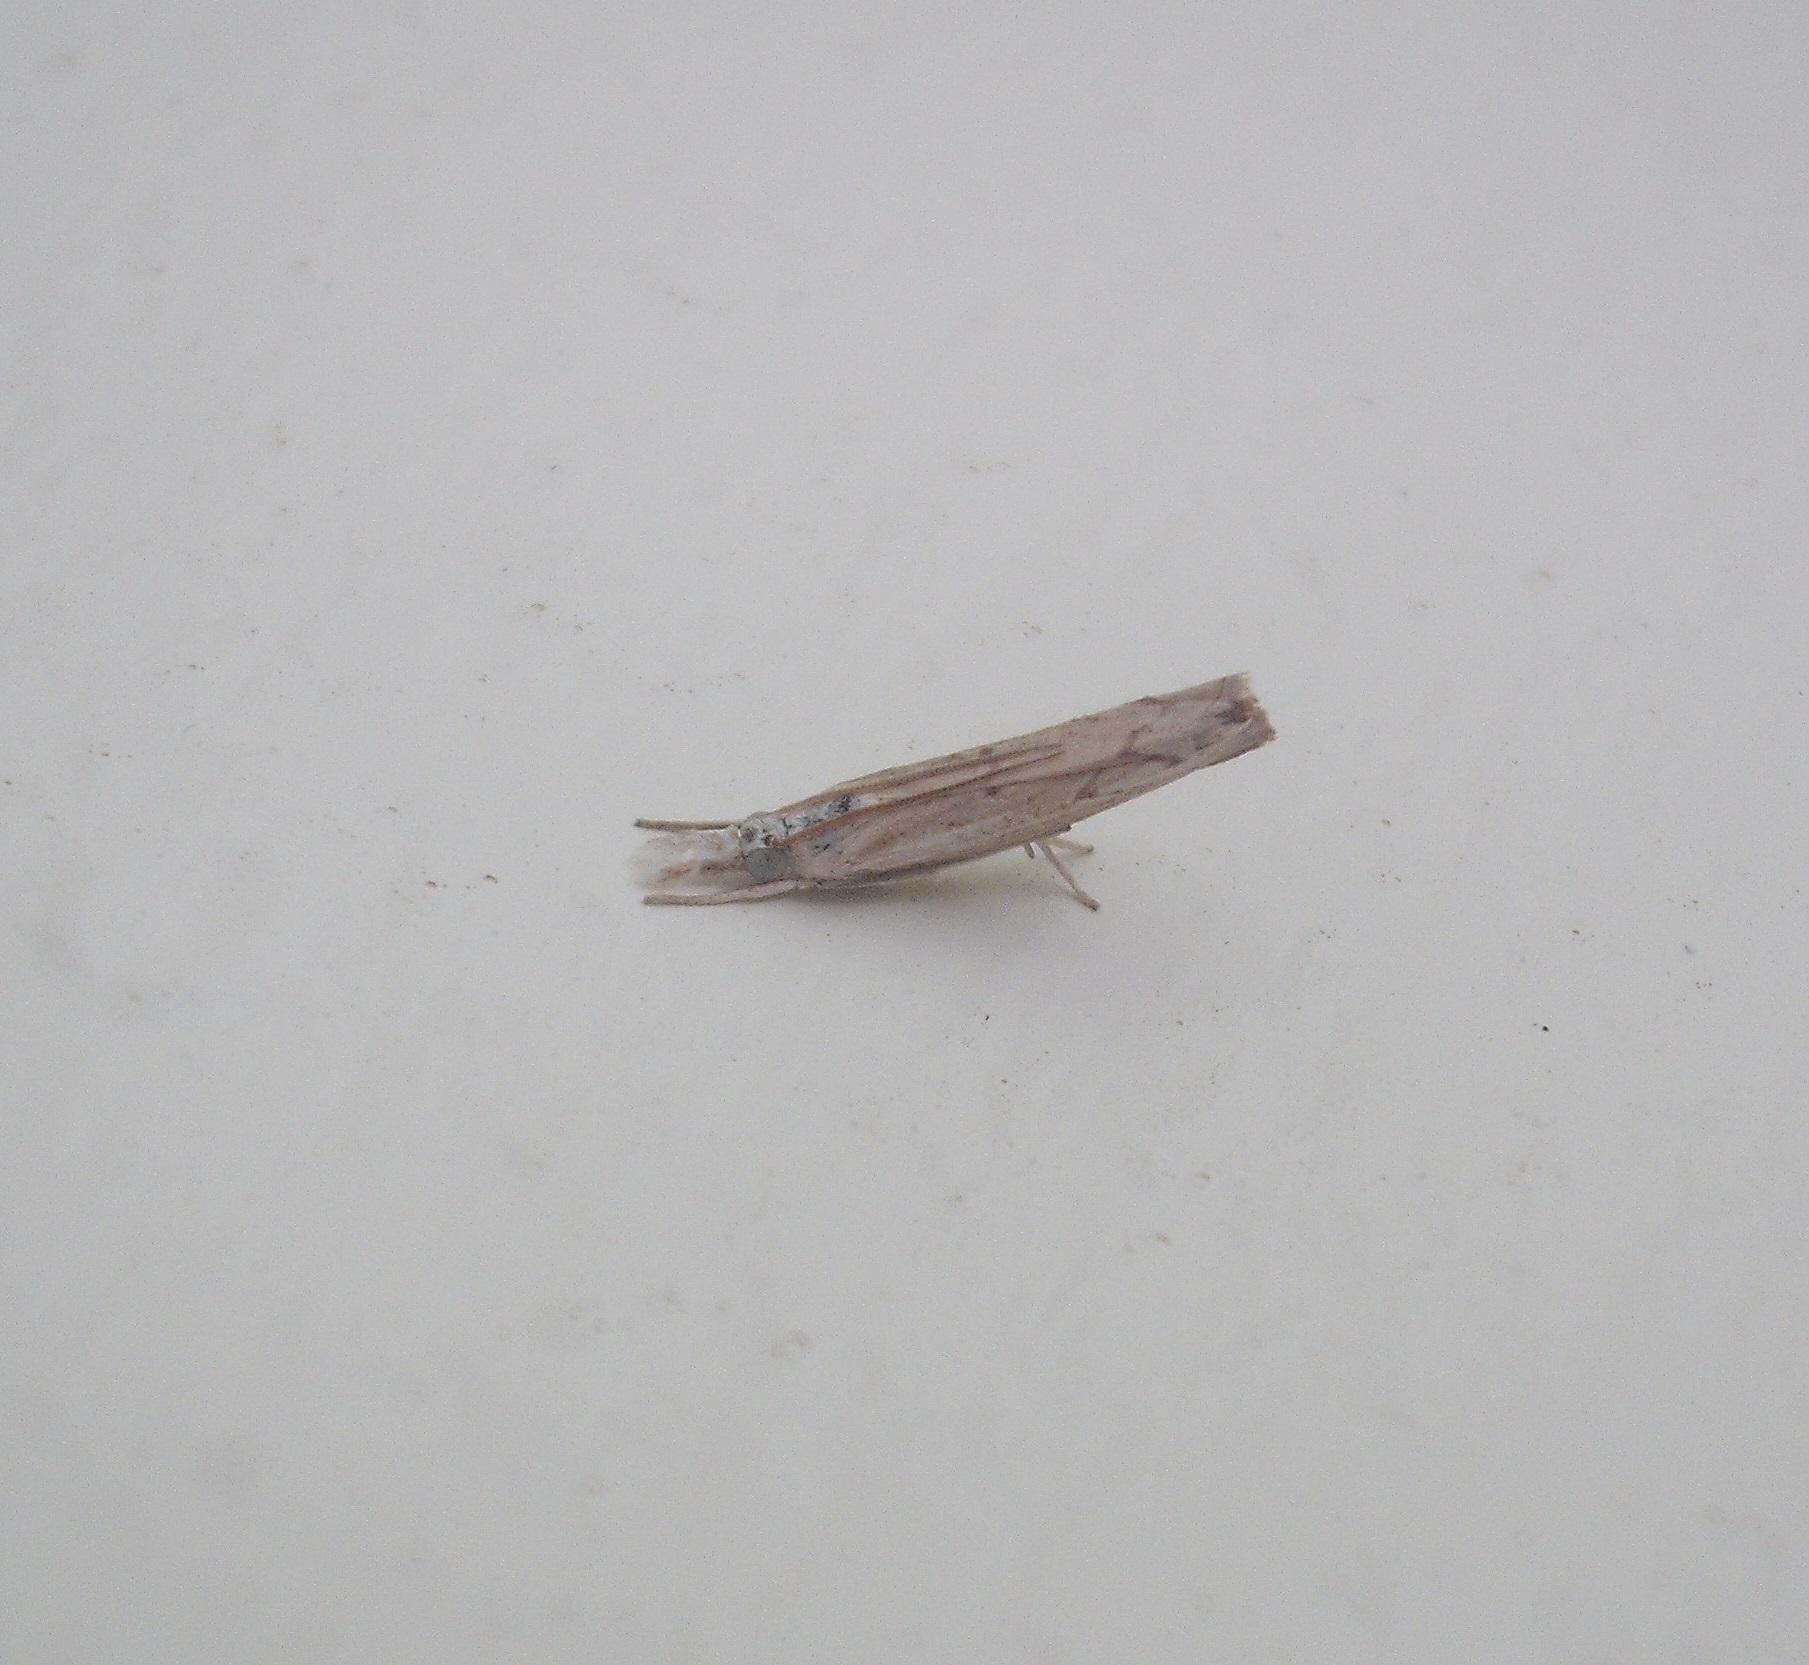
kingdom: Animalia
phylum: Arthropoda
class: Insecta
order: Lepidoptera
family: Crambidae
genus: Culladia
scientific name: Culladia cuneiferellus
